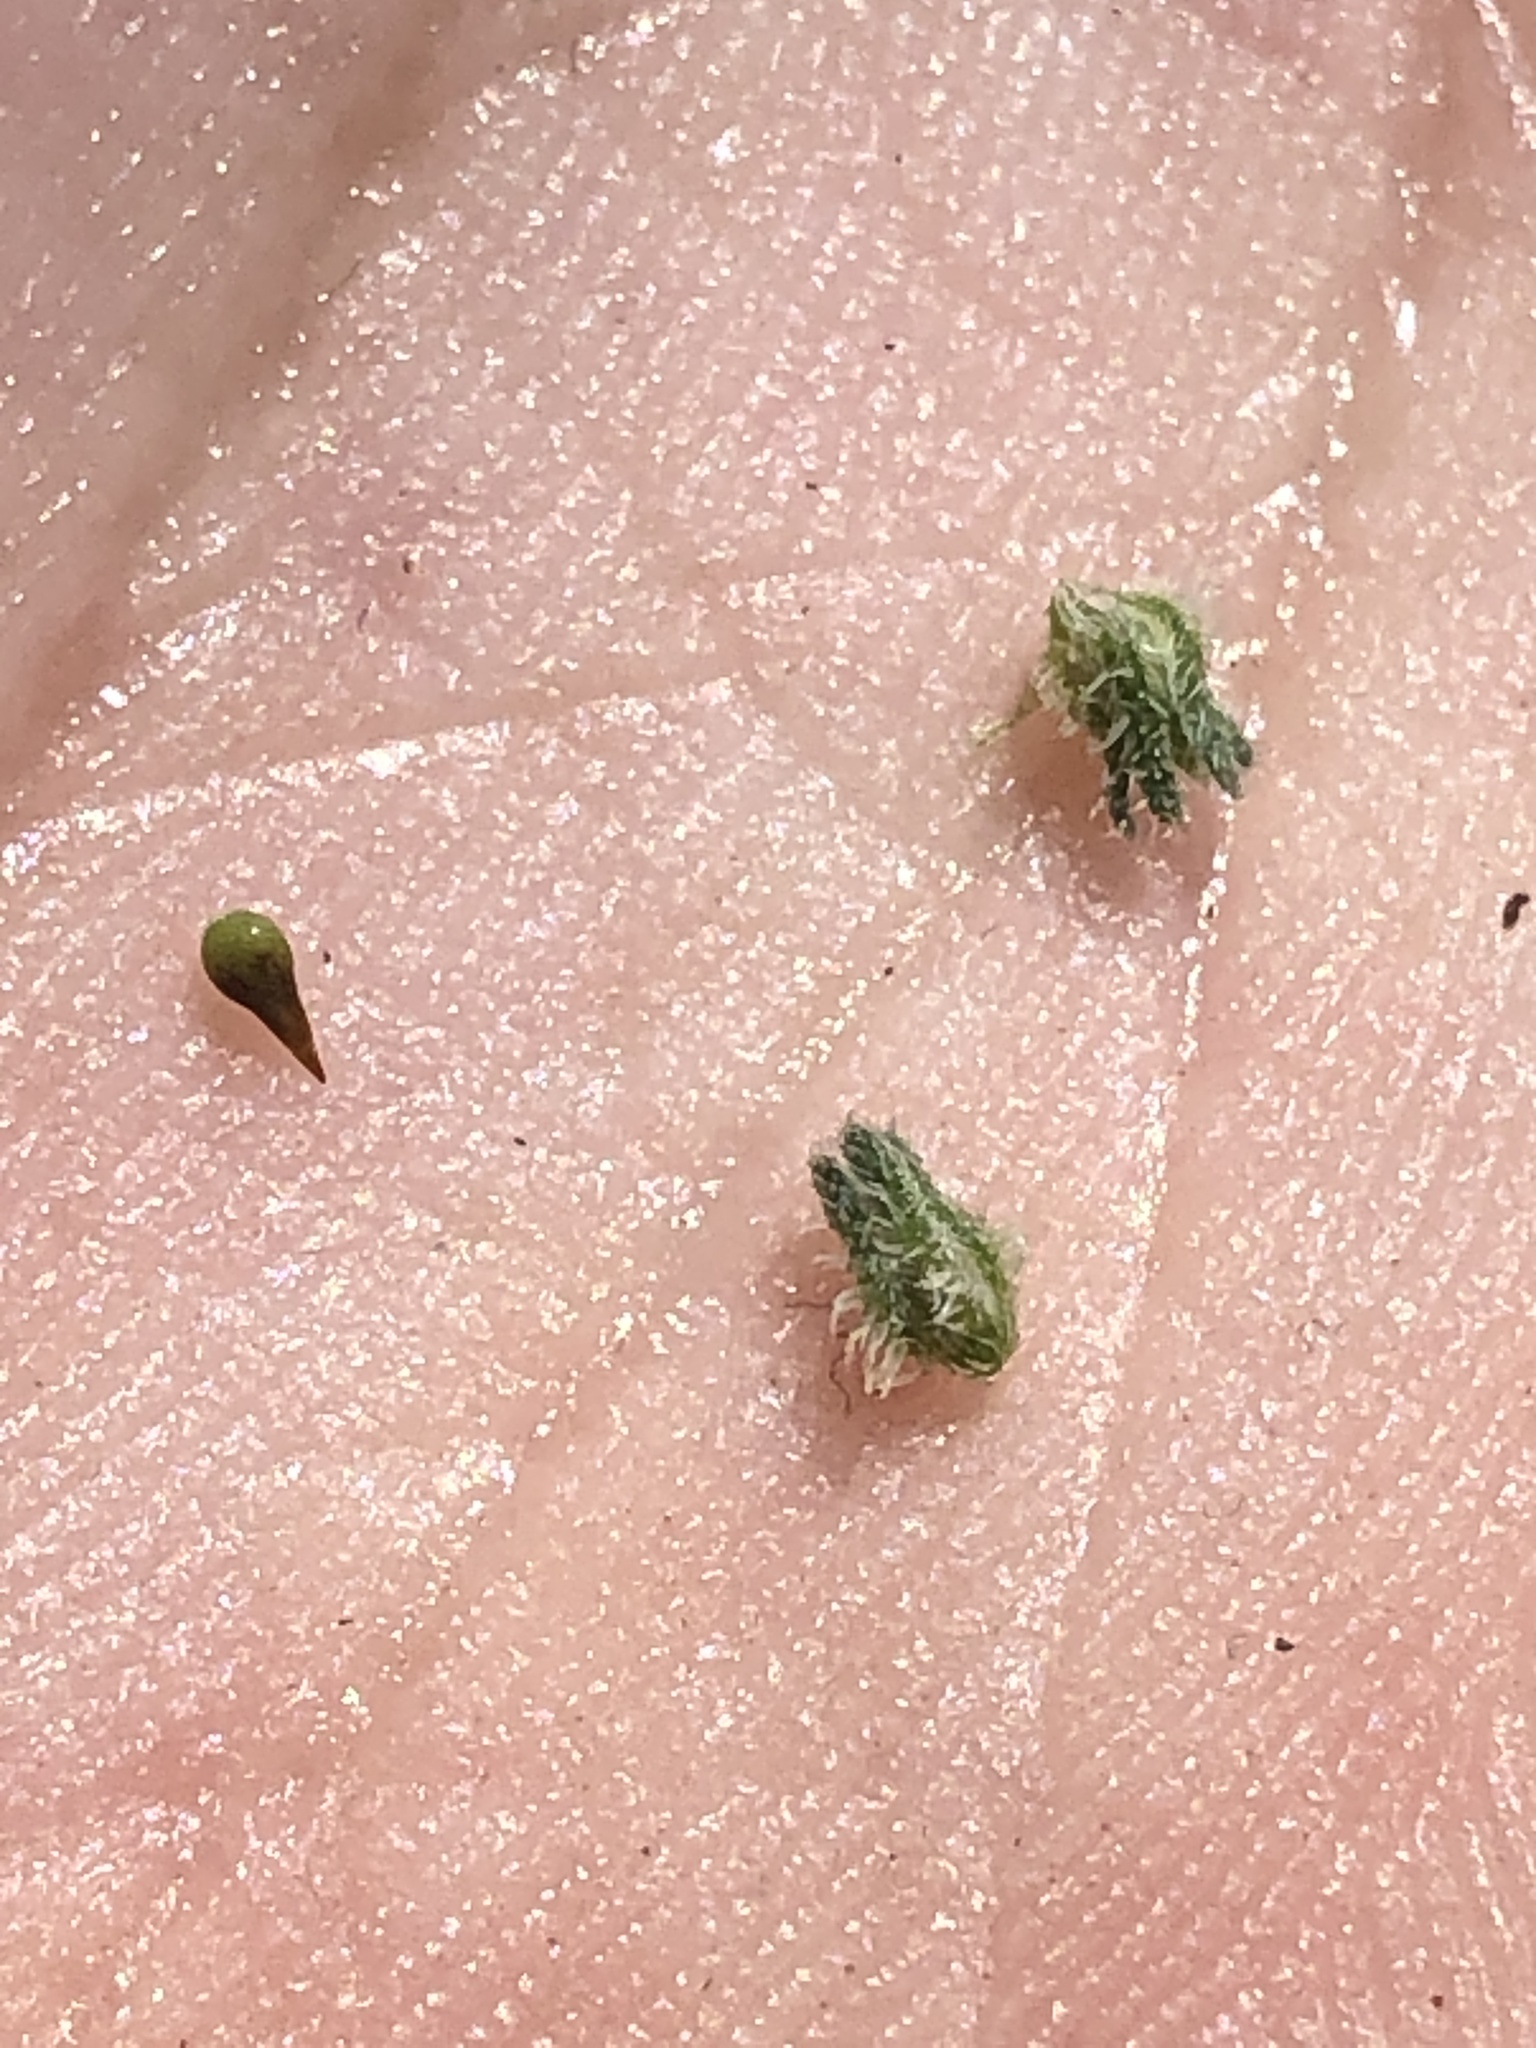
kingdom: Plantae
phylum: Tracheophyta
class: Magnoliopsida
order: Boraginales
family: Boraginaceae
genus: Cryptantha
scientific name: Cryptantha flaccida
